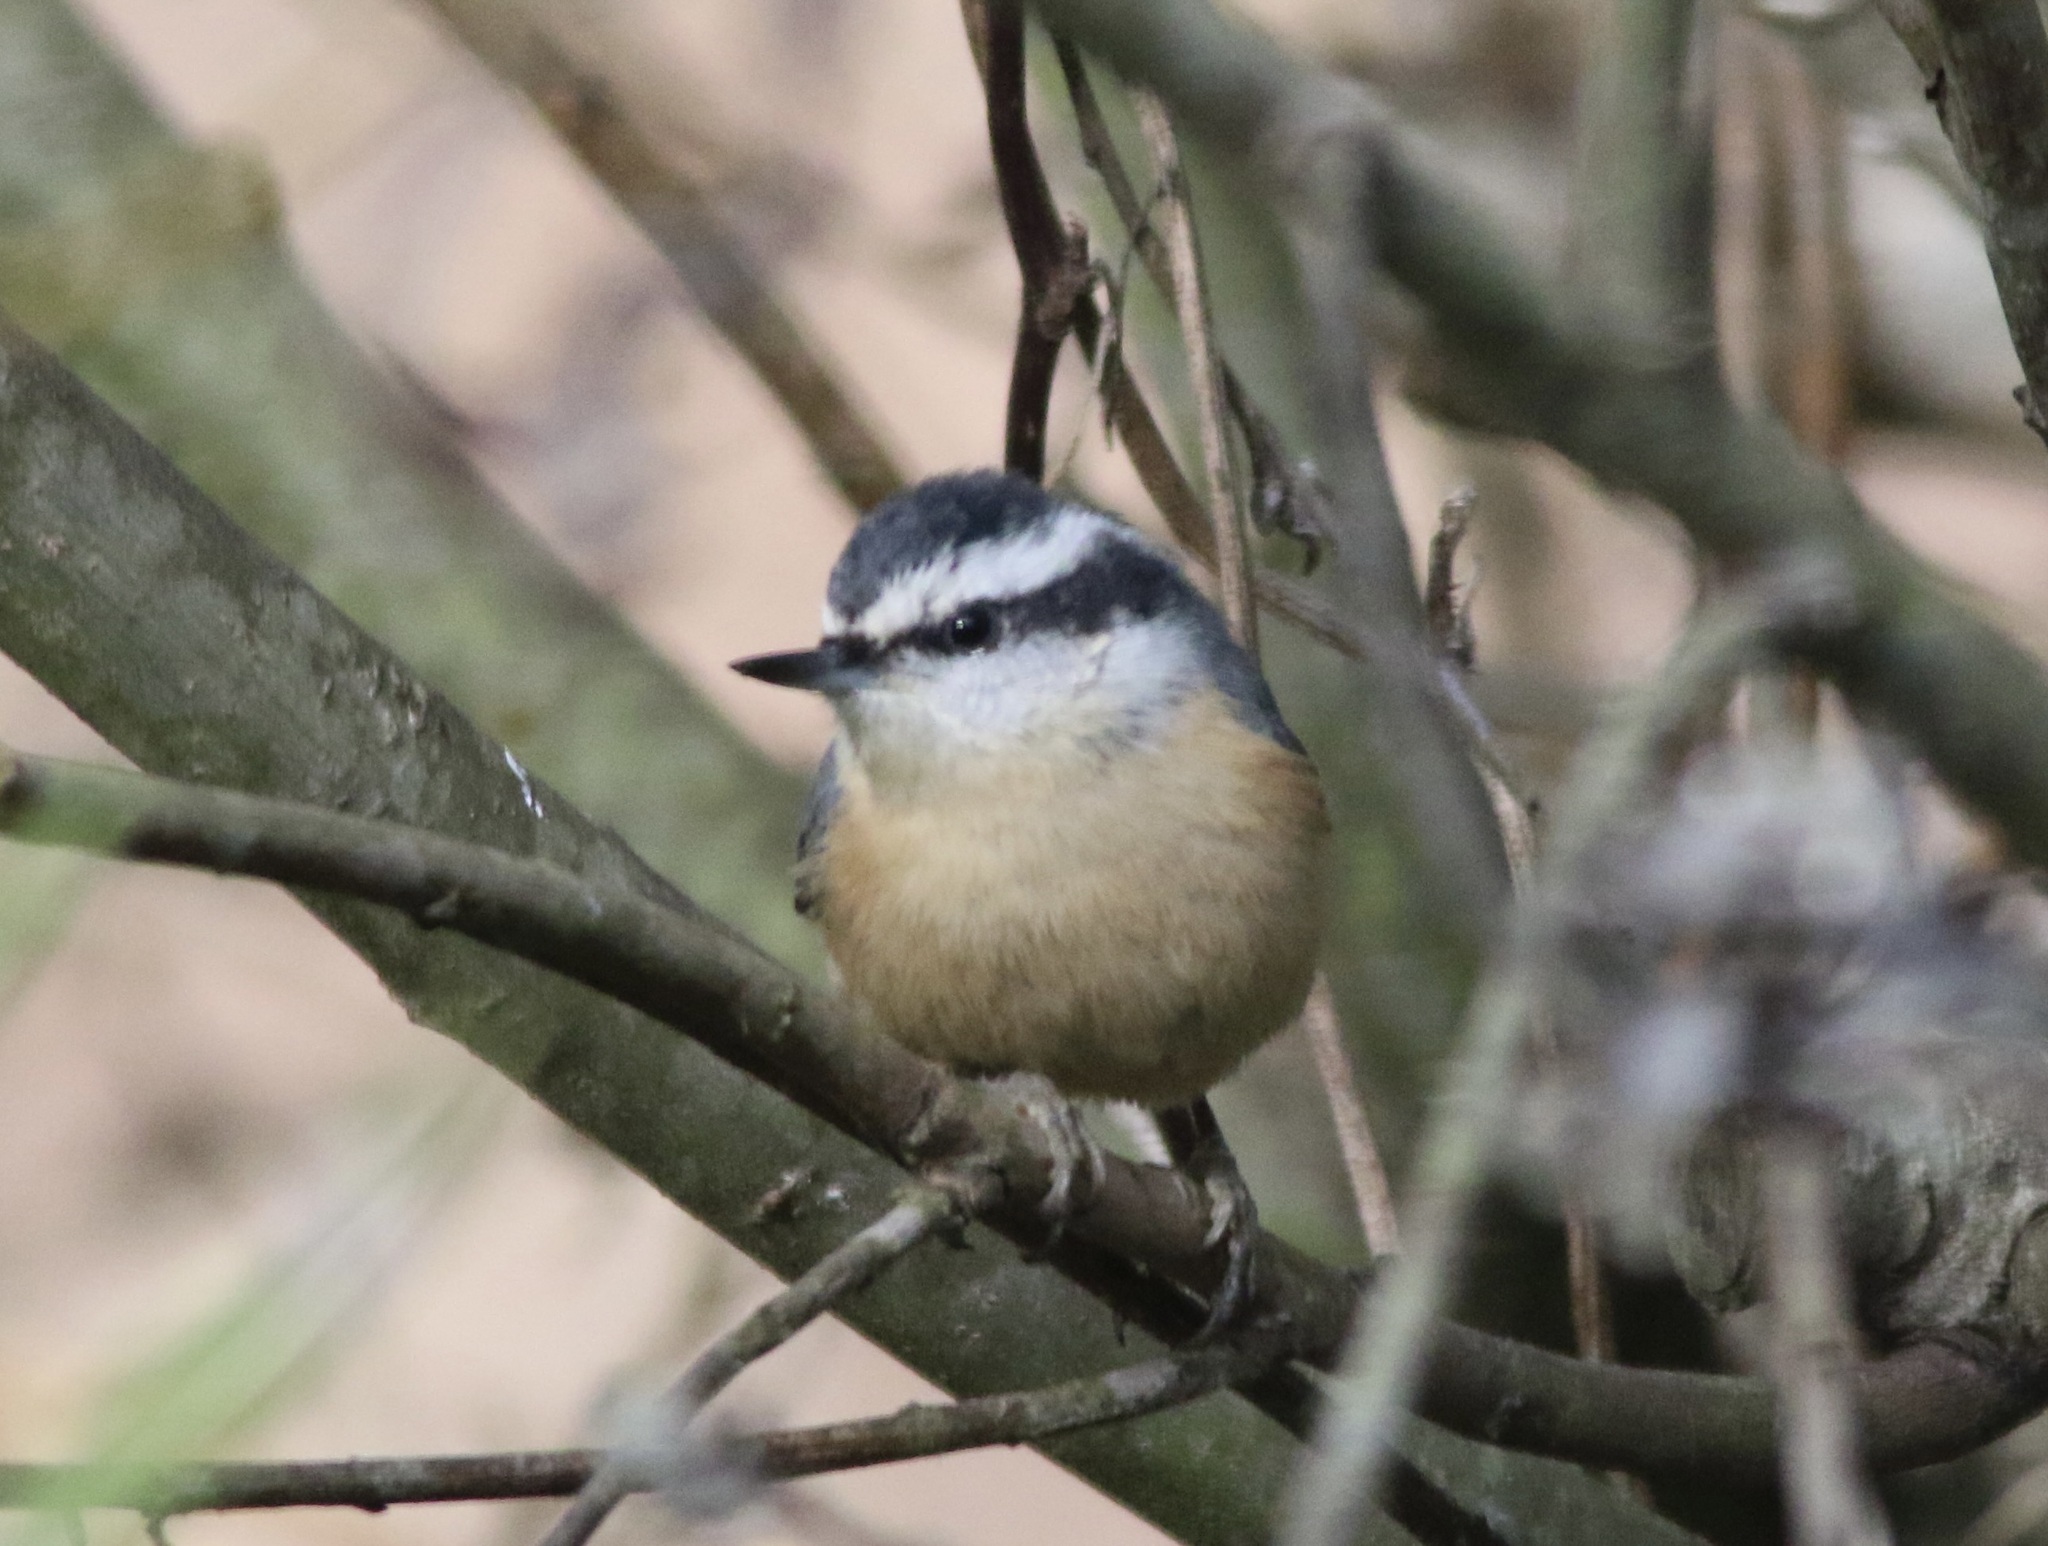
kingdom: Animalia
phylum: Chordata
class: Aves
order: Passeriformes
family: Sittidae
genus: Sitta
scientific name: Sitta canadensis
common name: Red-breasted nuthatch
